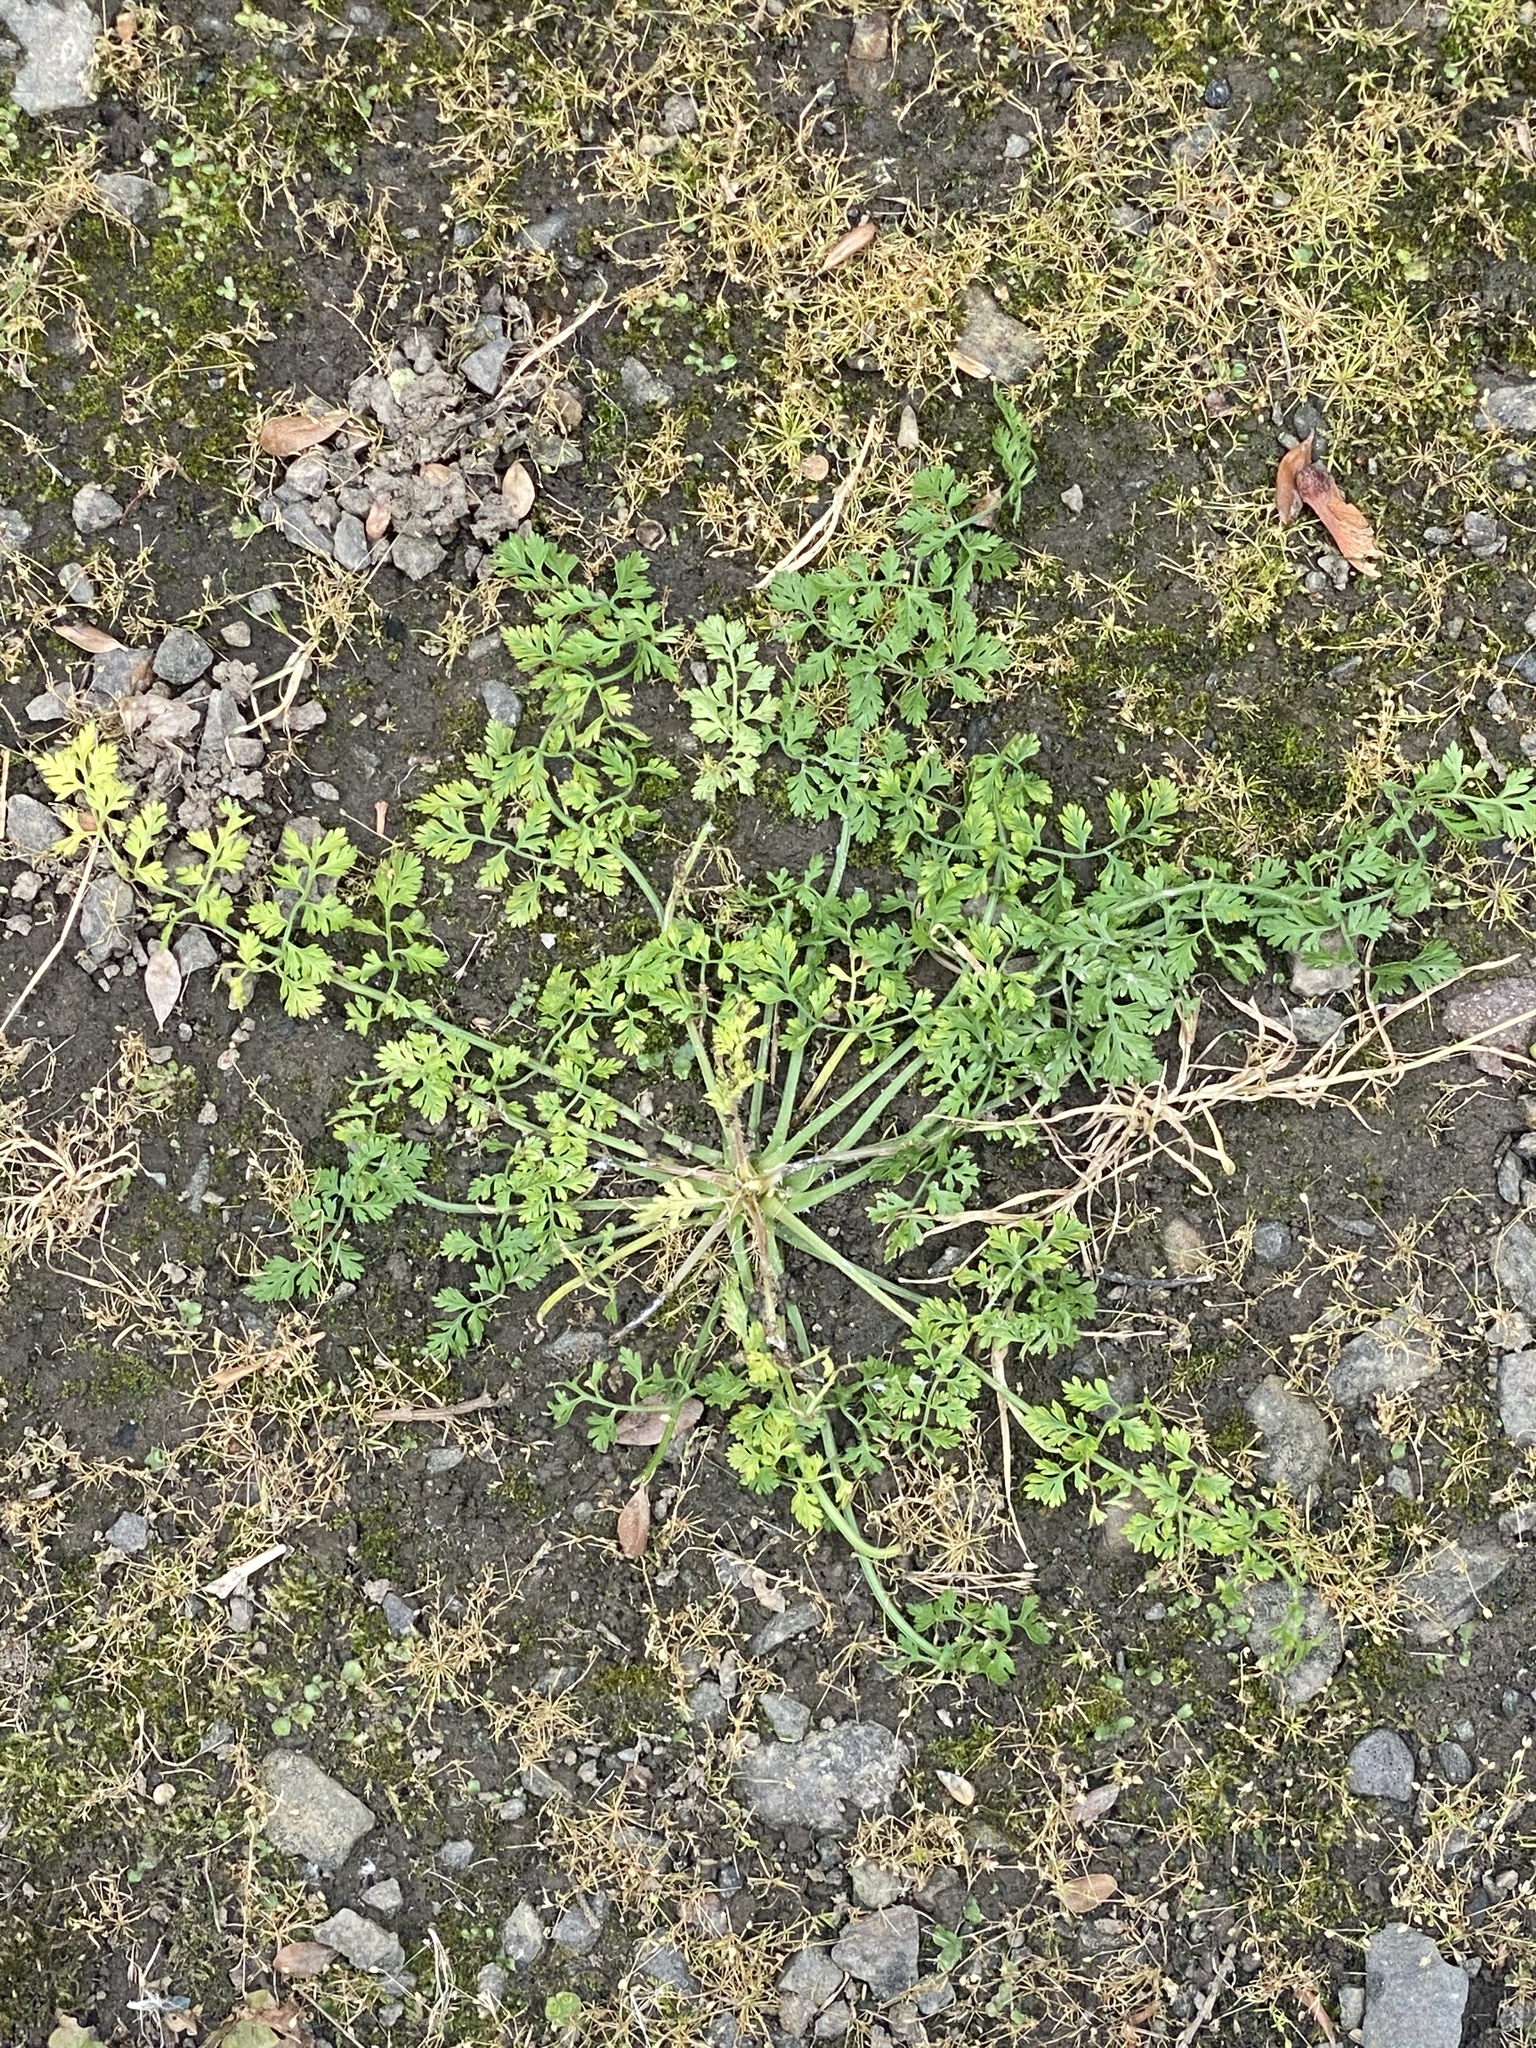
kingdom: Plantae
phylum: Tracheophyta
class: Magnoliopsida
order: Apiales
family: Apiaceae
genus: Daucus
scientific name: Daucus carota
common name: Wild carrot
